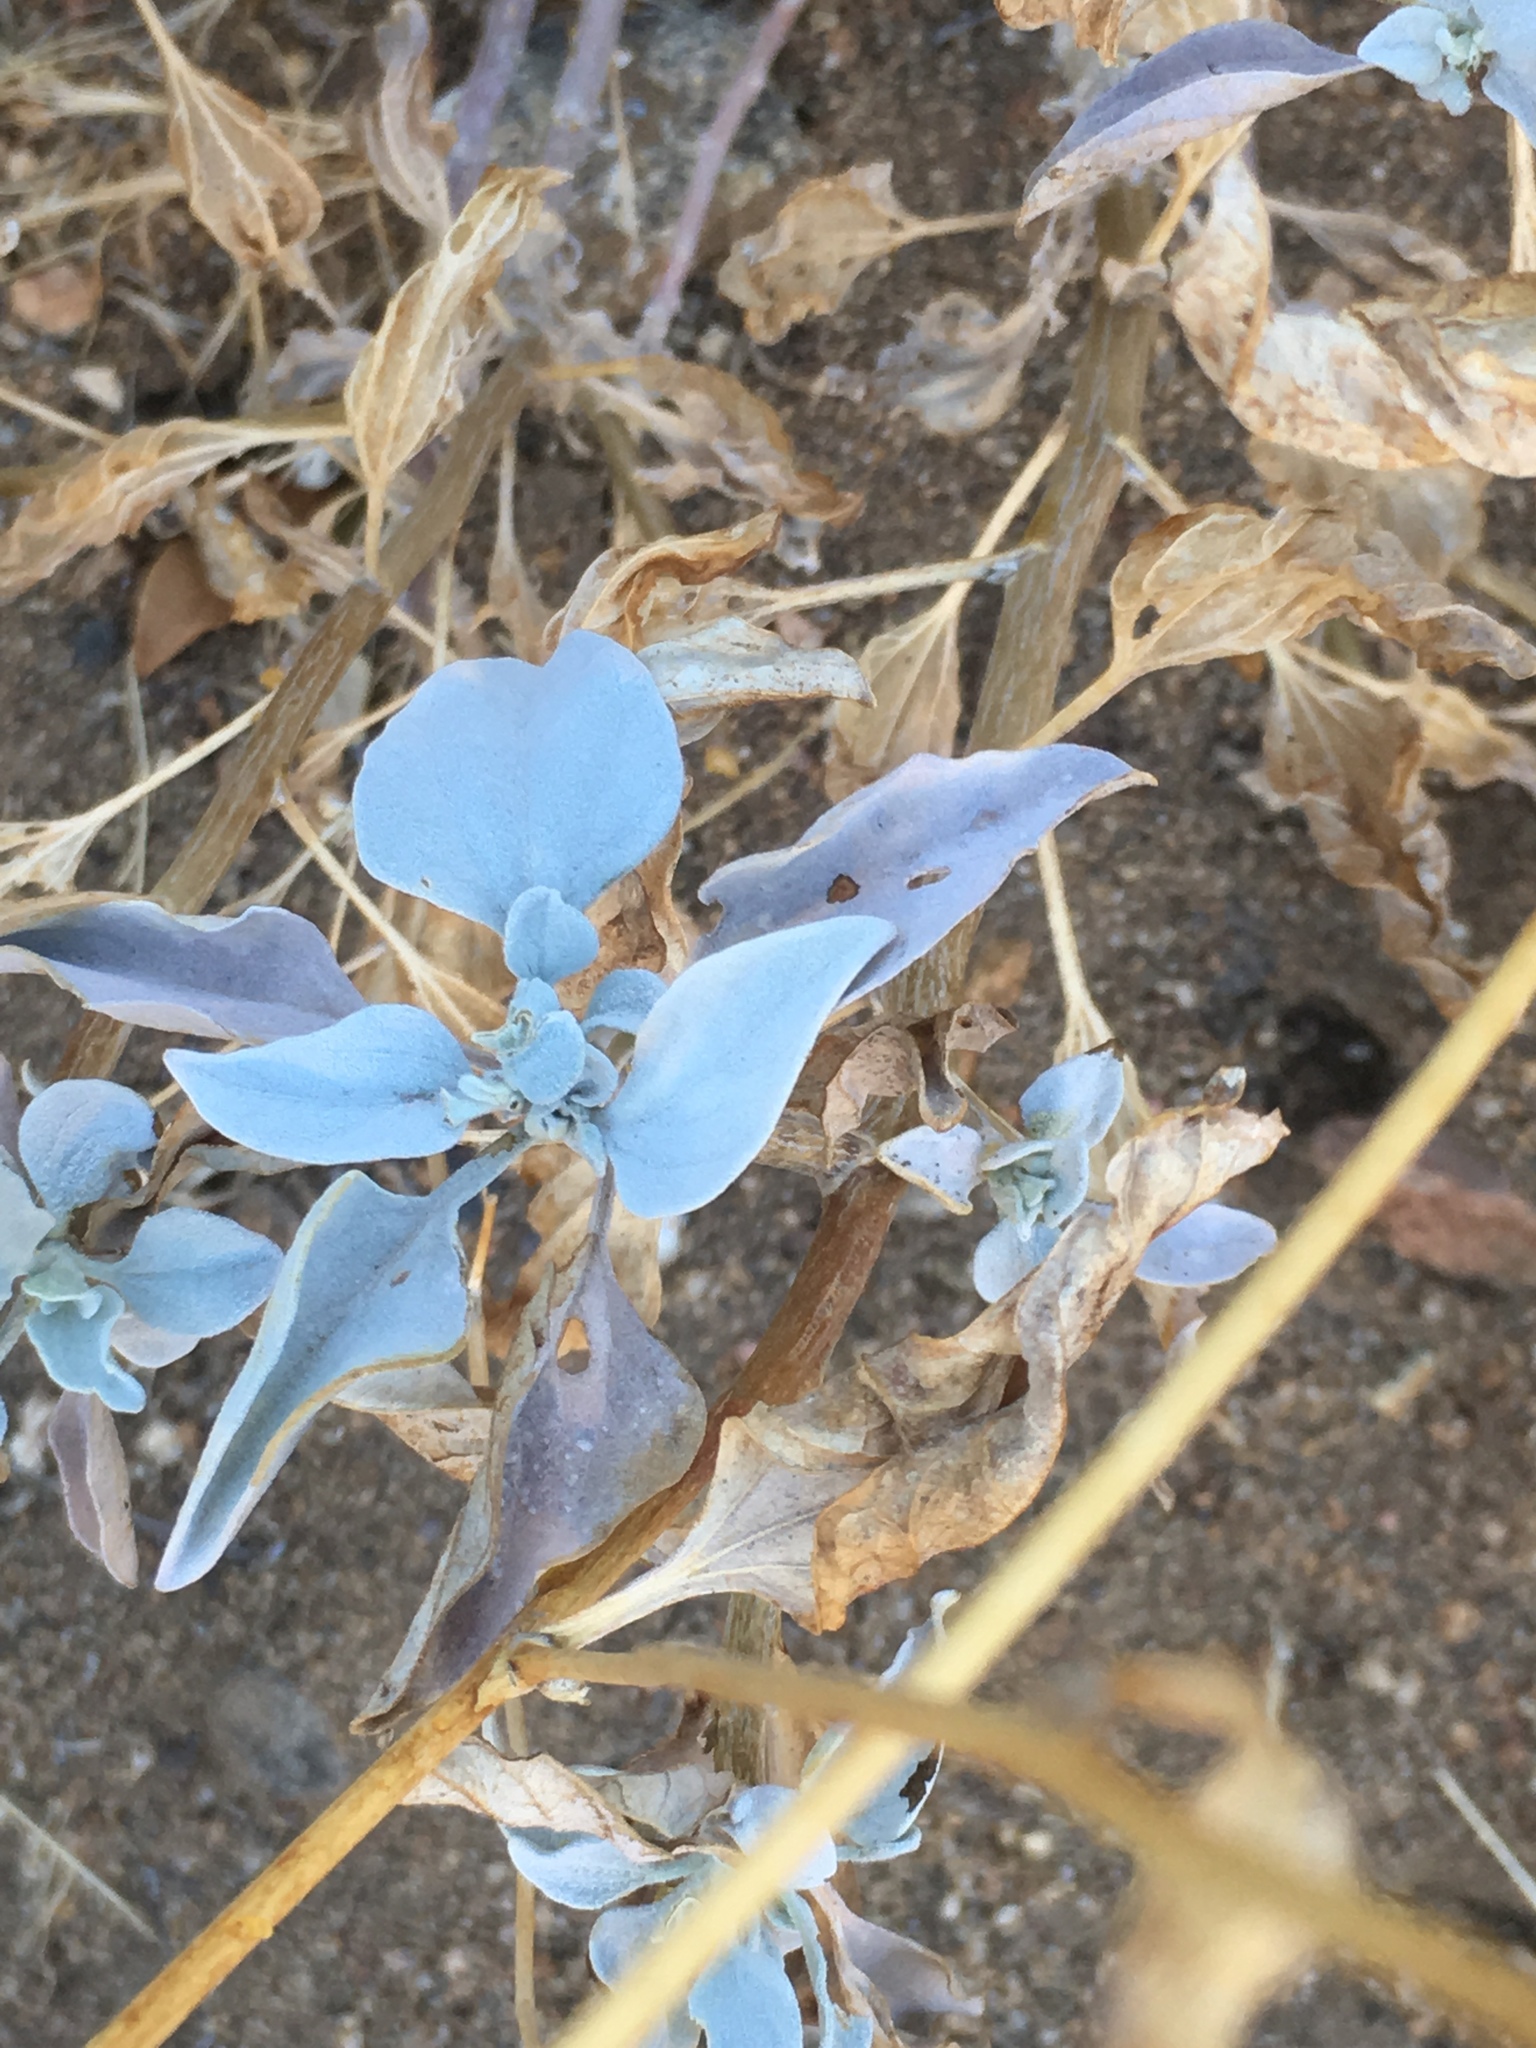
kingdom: Plantae
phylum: Tracheophyta
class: Magnoliopsida
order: Asterales
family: Asteraceae
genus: Encelia
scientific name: Encelia farinosa
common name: Brittlebush
